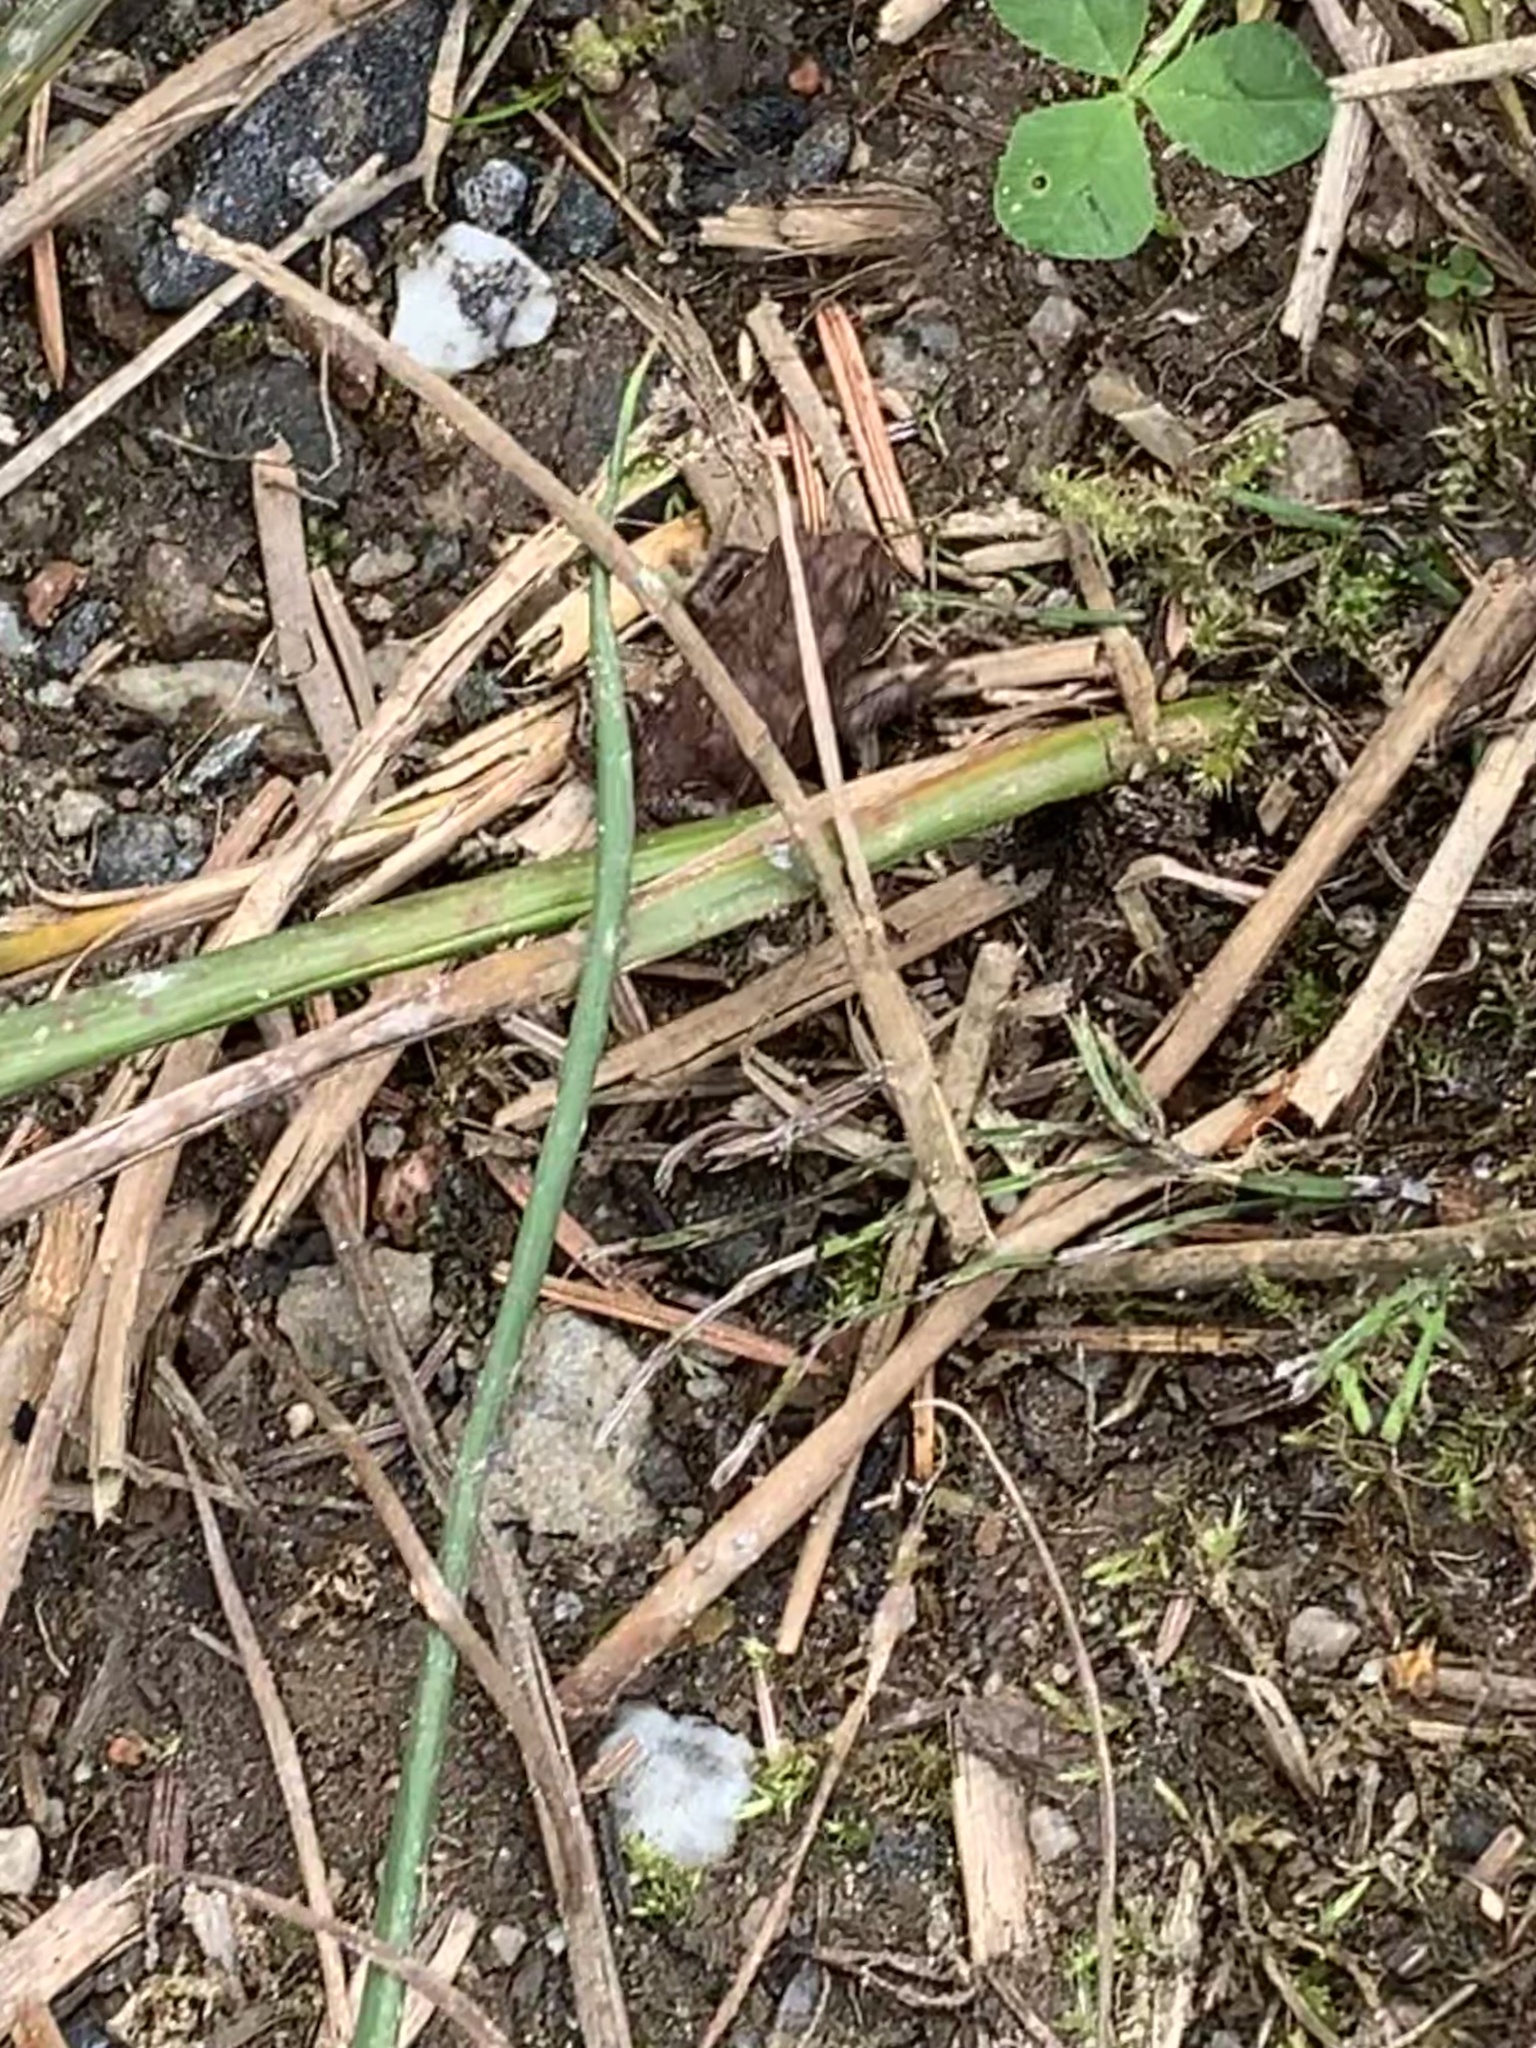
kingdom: Animalia
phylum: Chordata
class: Amphibia
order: Anura
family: Bufonidae
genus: Bufo
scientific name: Bufo bufo
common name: Common toad
